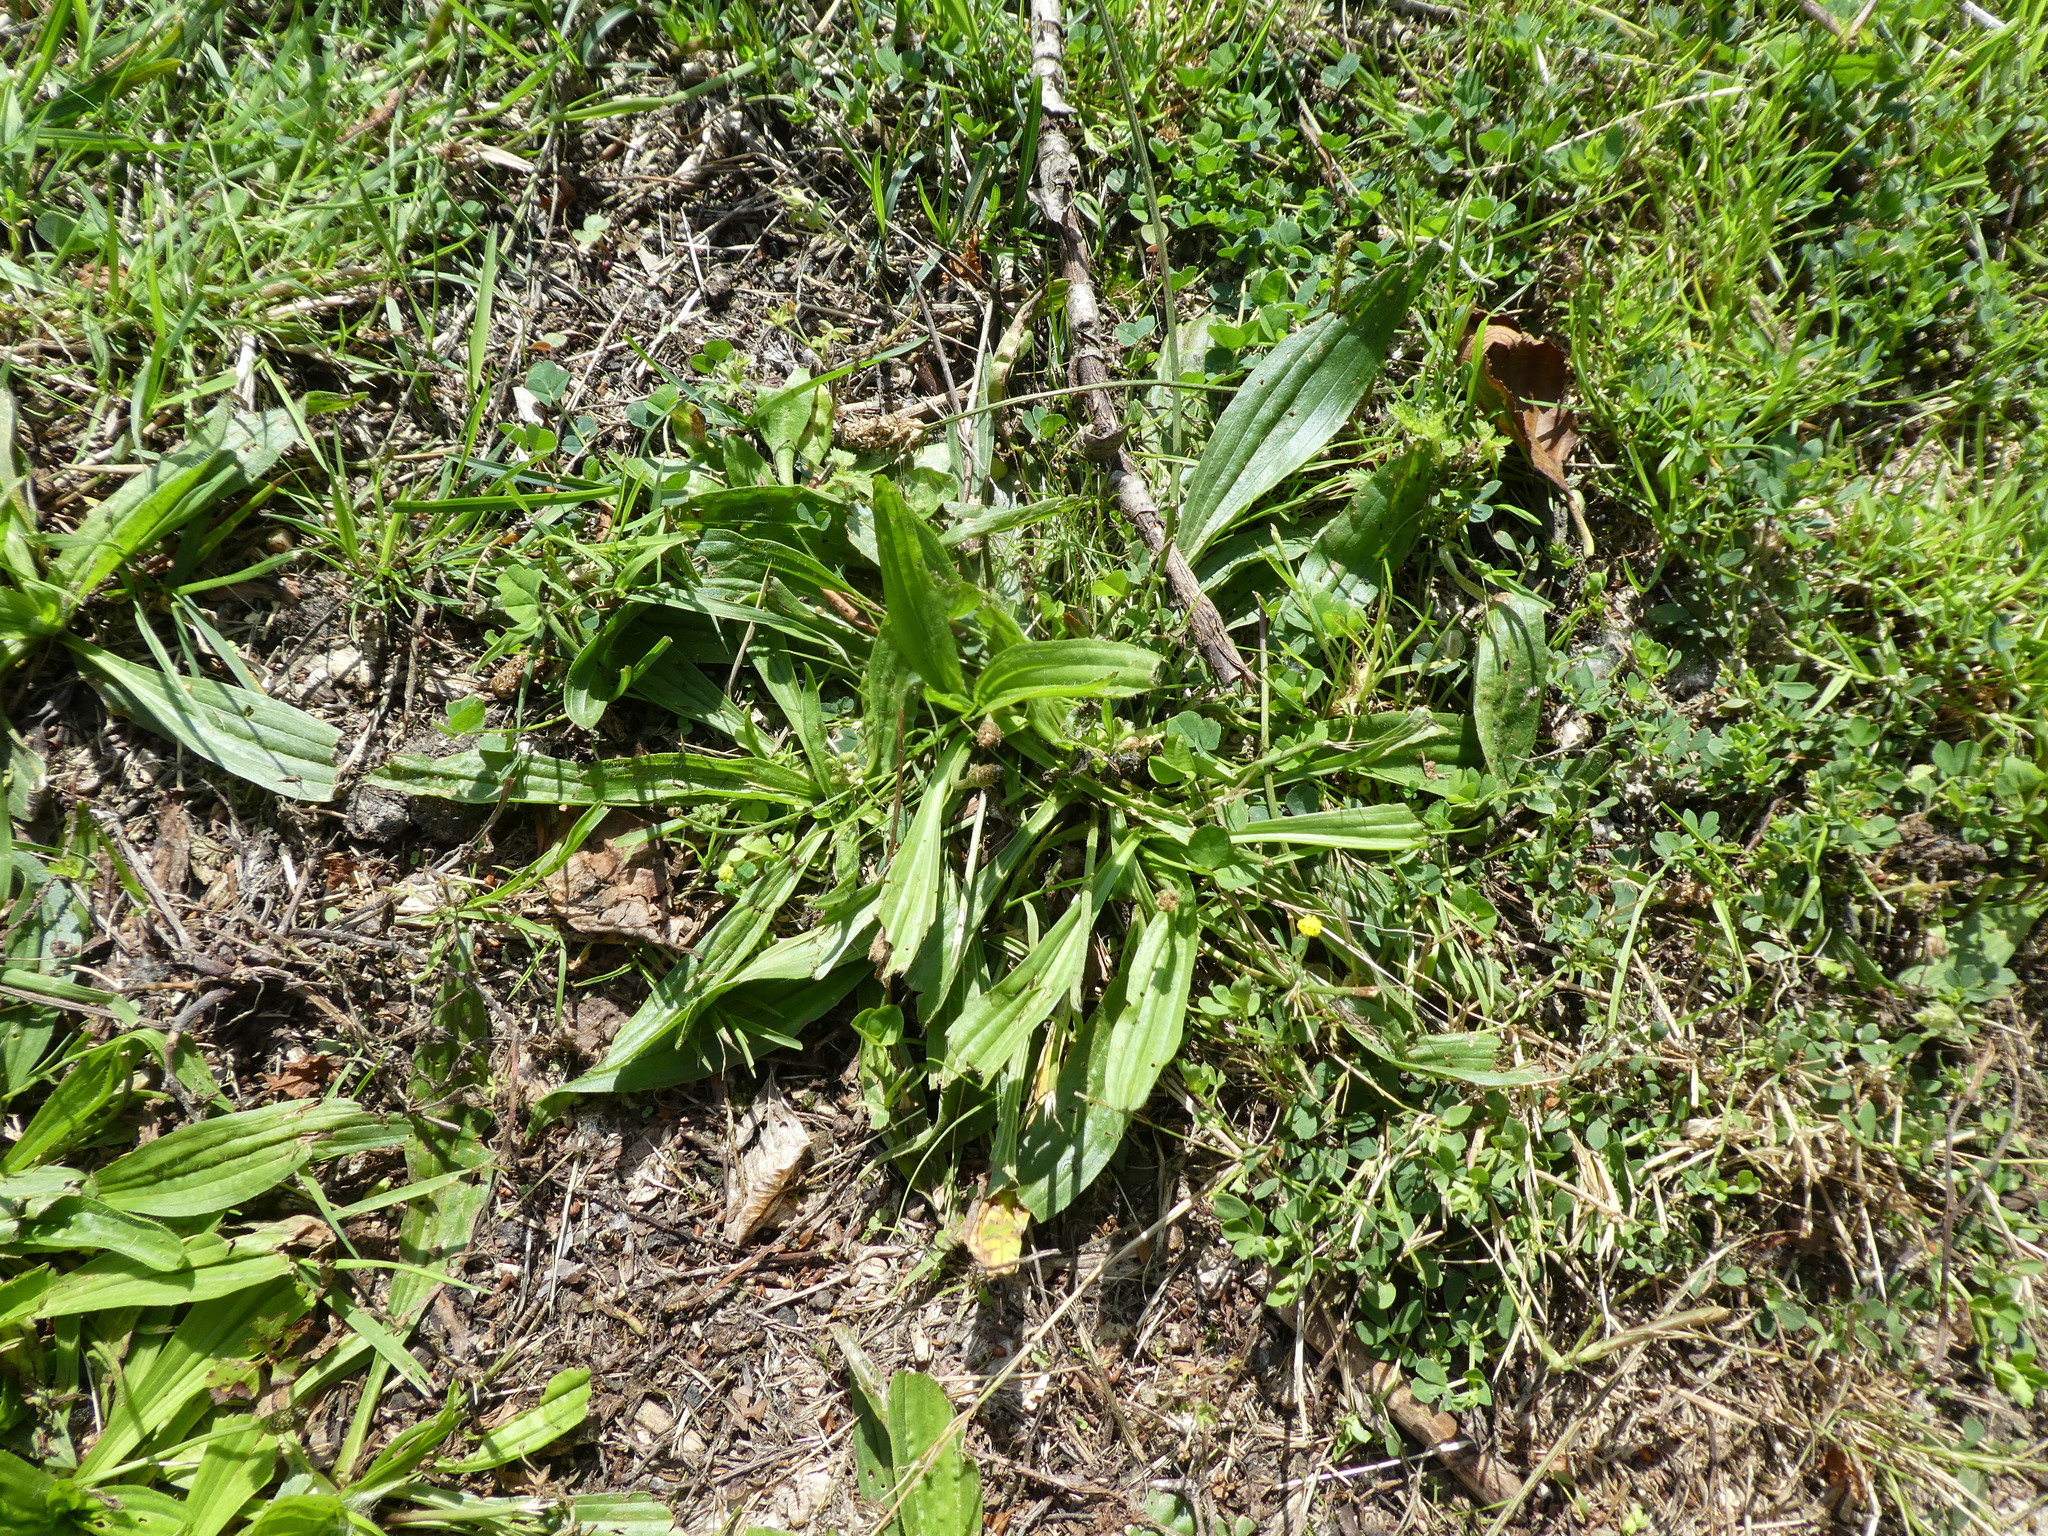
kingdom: Plantae
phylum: Tracheophyta
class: Magnoliopsida
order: Lamiales
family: Plantaginaceae
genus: Plantago
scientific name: Plantago lanceolata
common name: Ribwort plantain
